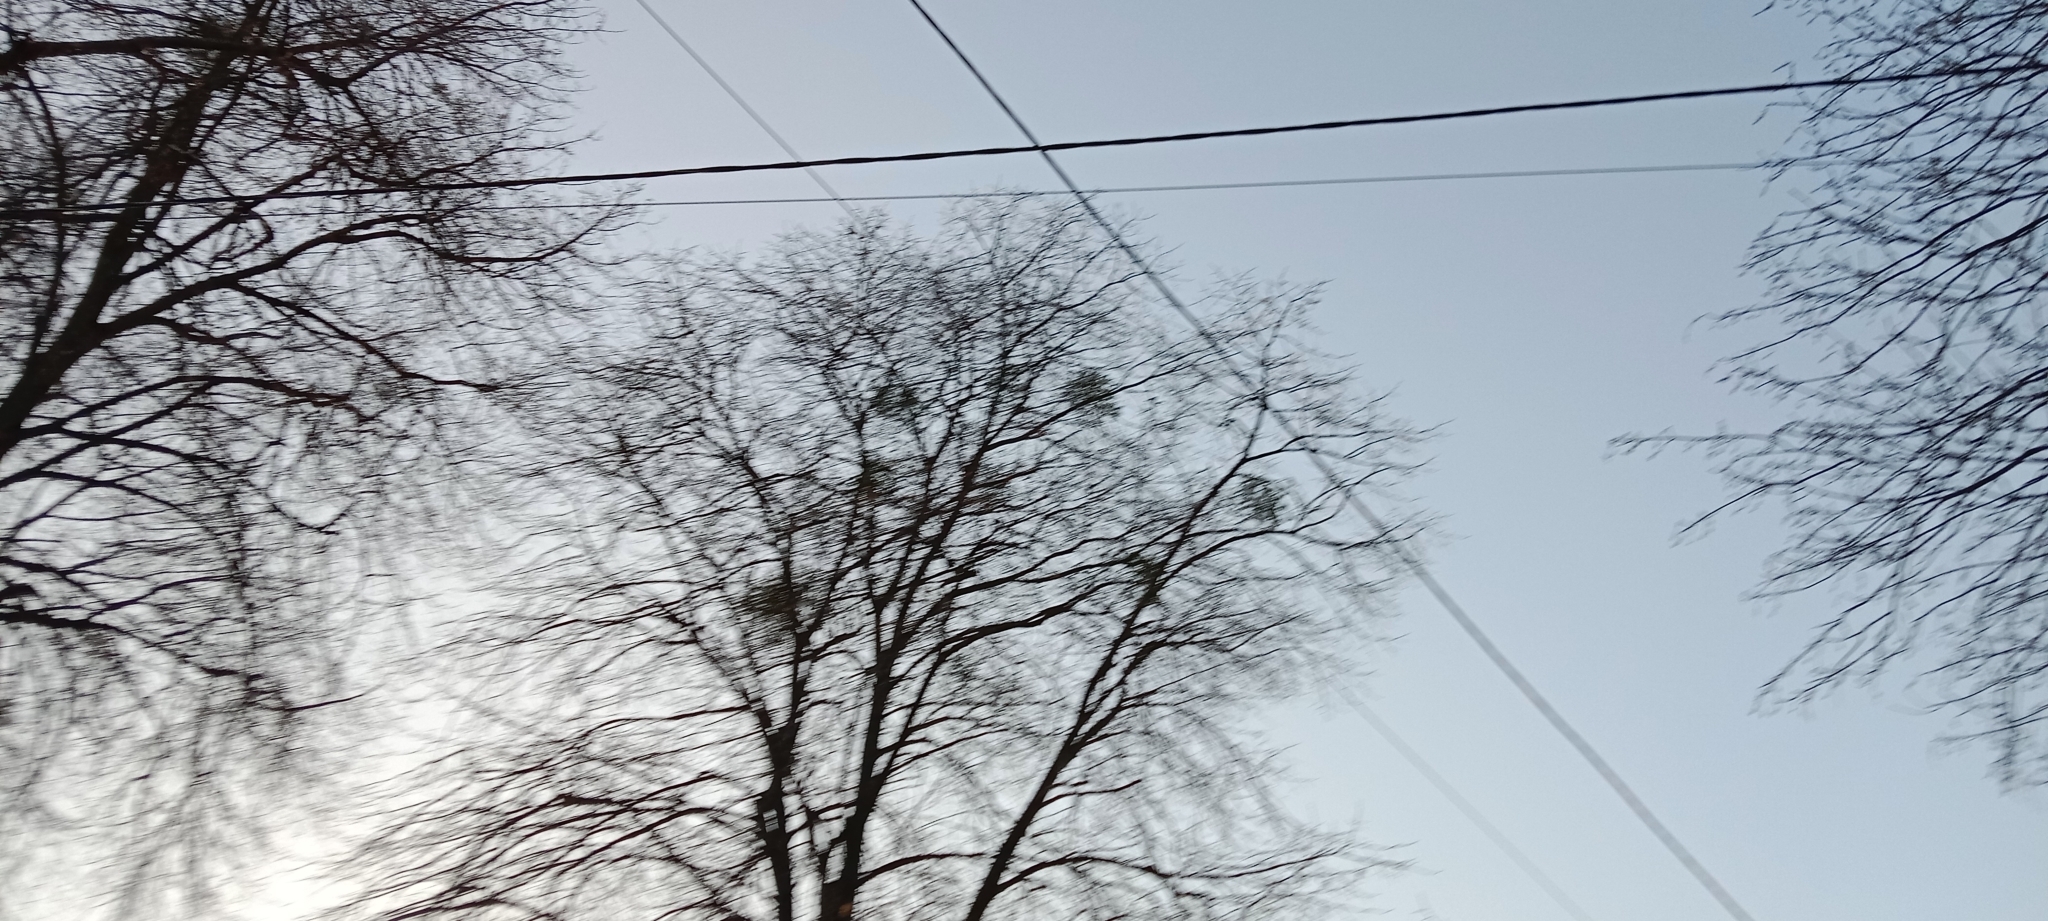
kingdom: Plantae
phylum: Tracheophyta
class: Magnoliopsida
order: Santalales
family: Viscaceae
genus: Viscum
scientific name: Viscum album
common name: Mistletoe
